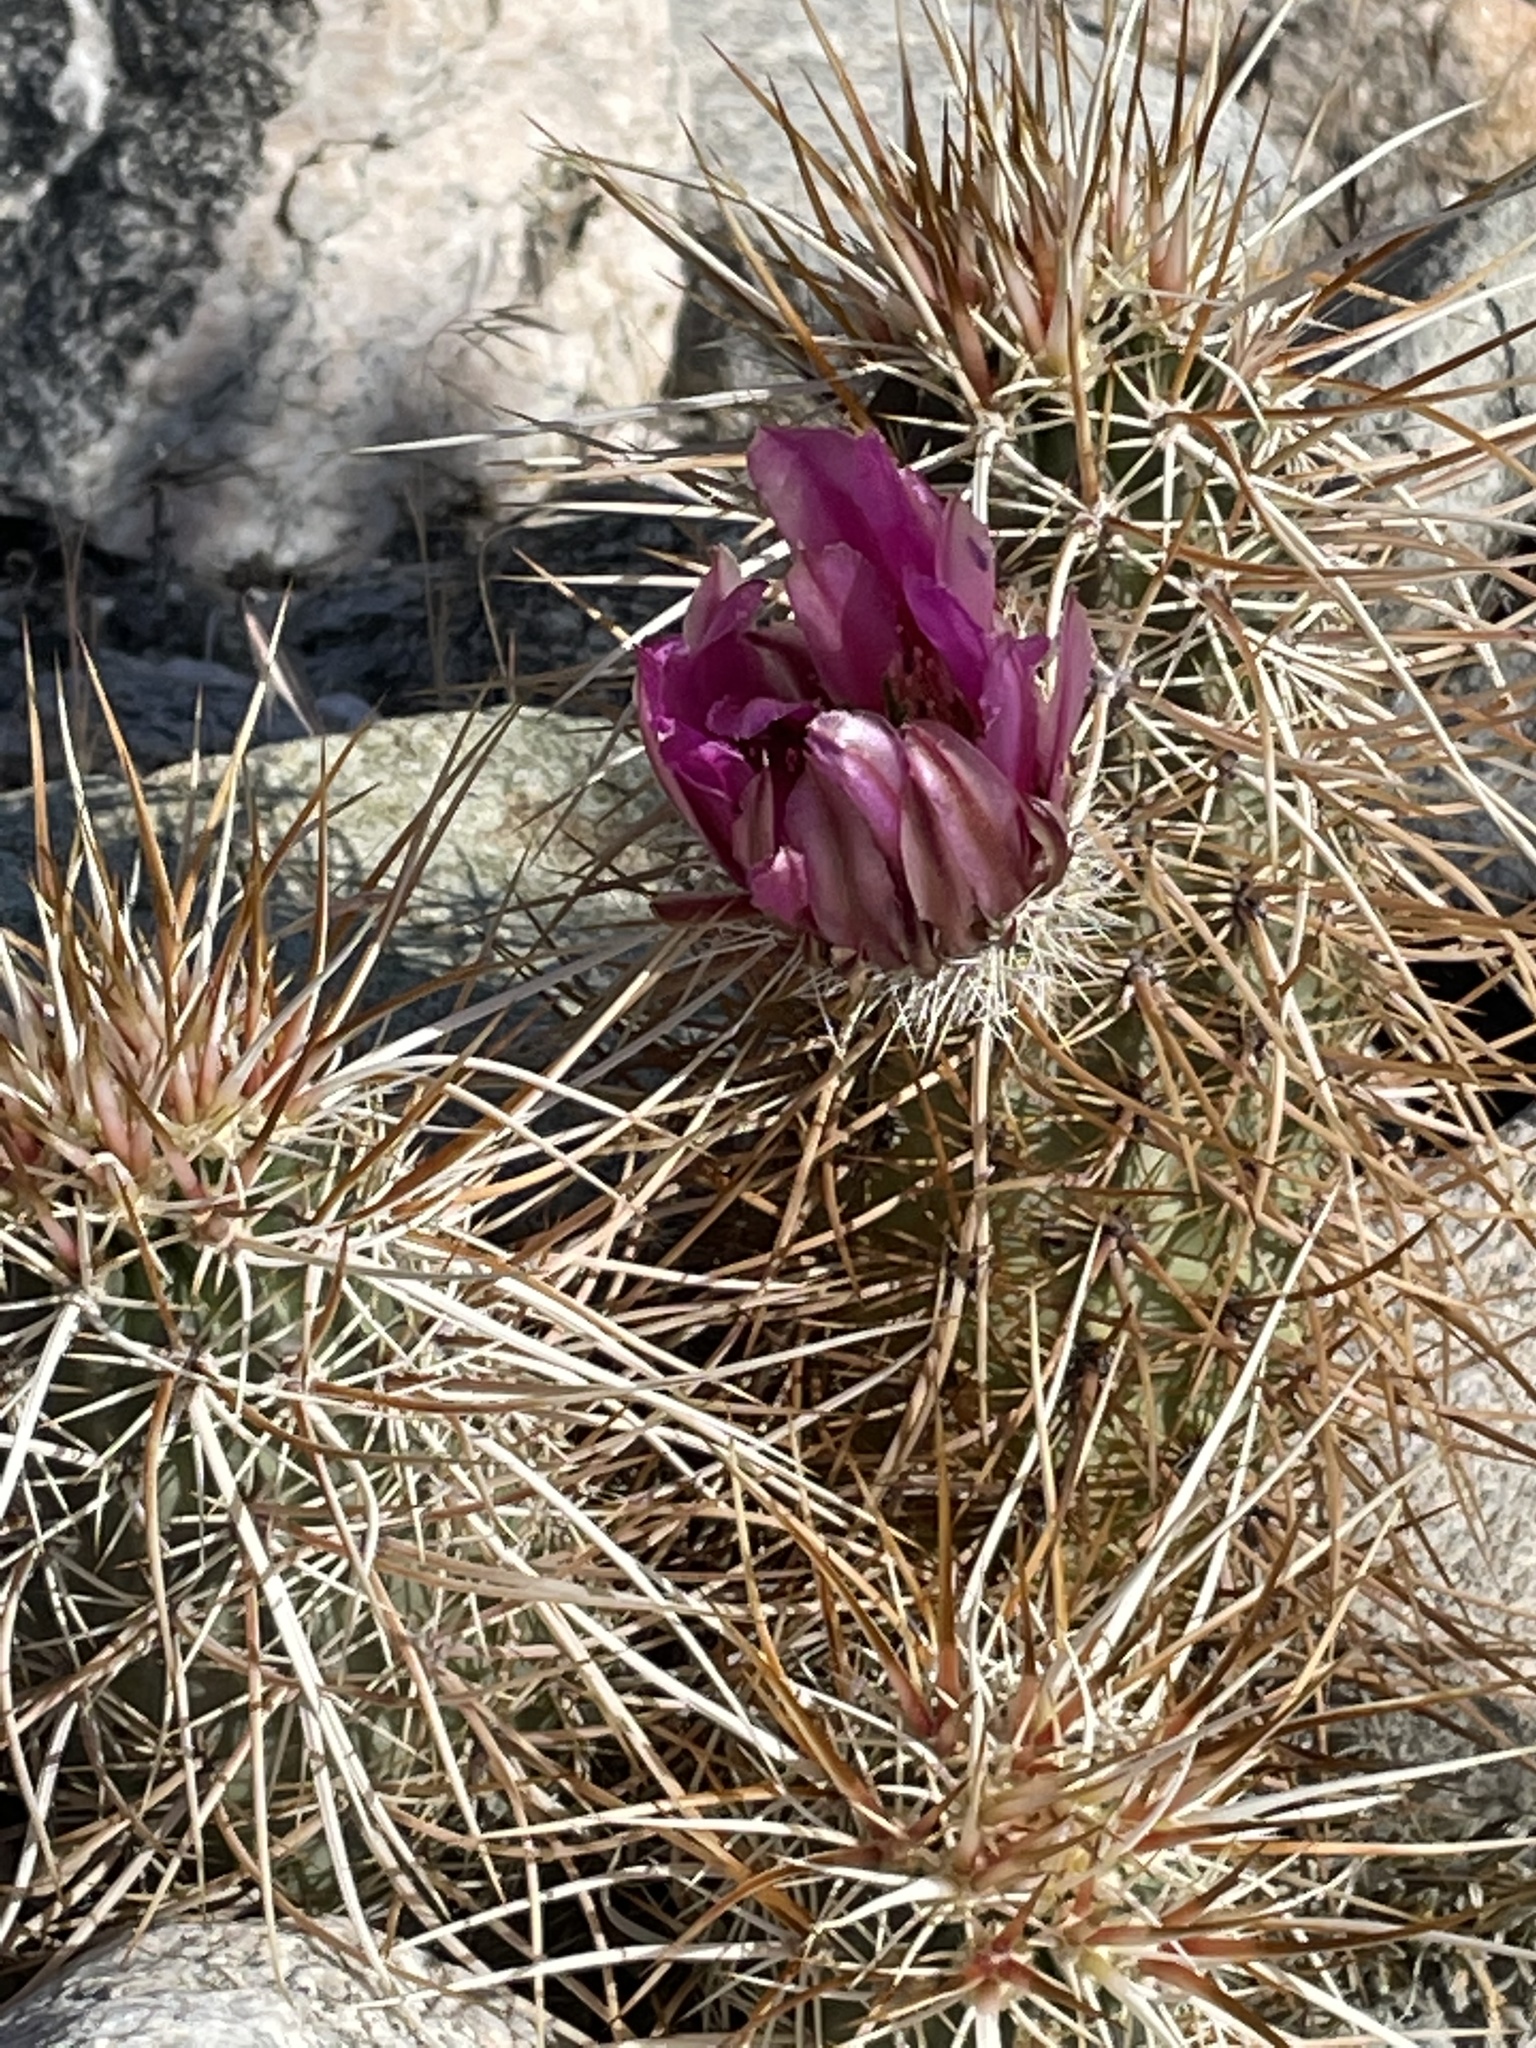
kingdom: Plantae
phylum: Tracheophyta
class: Magnoliopsida
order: Caryophyllales
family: Cactaceae
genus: Echinocereus
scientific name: Echinocereus engelmannii
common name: Engelmann's hedgehog cactus
